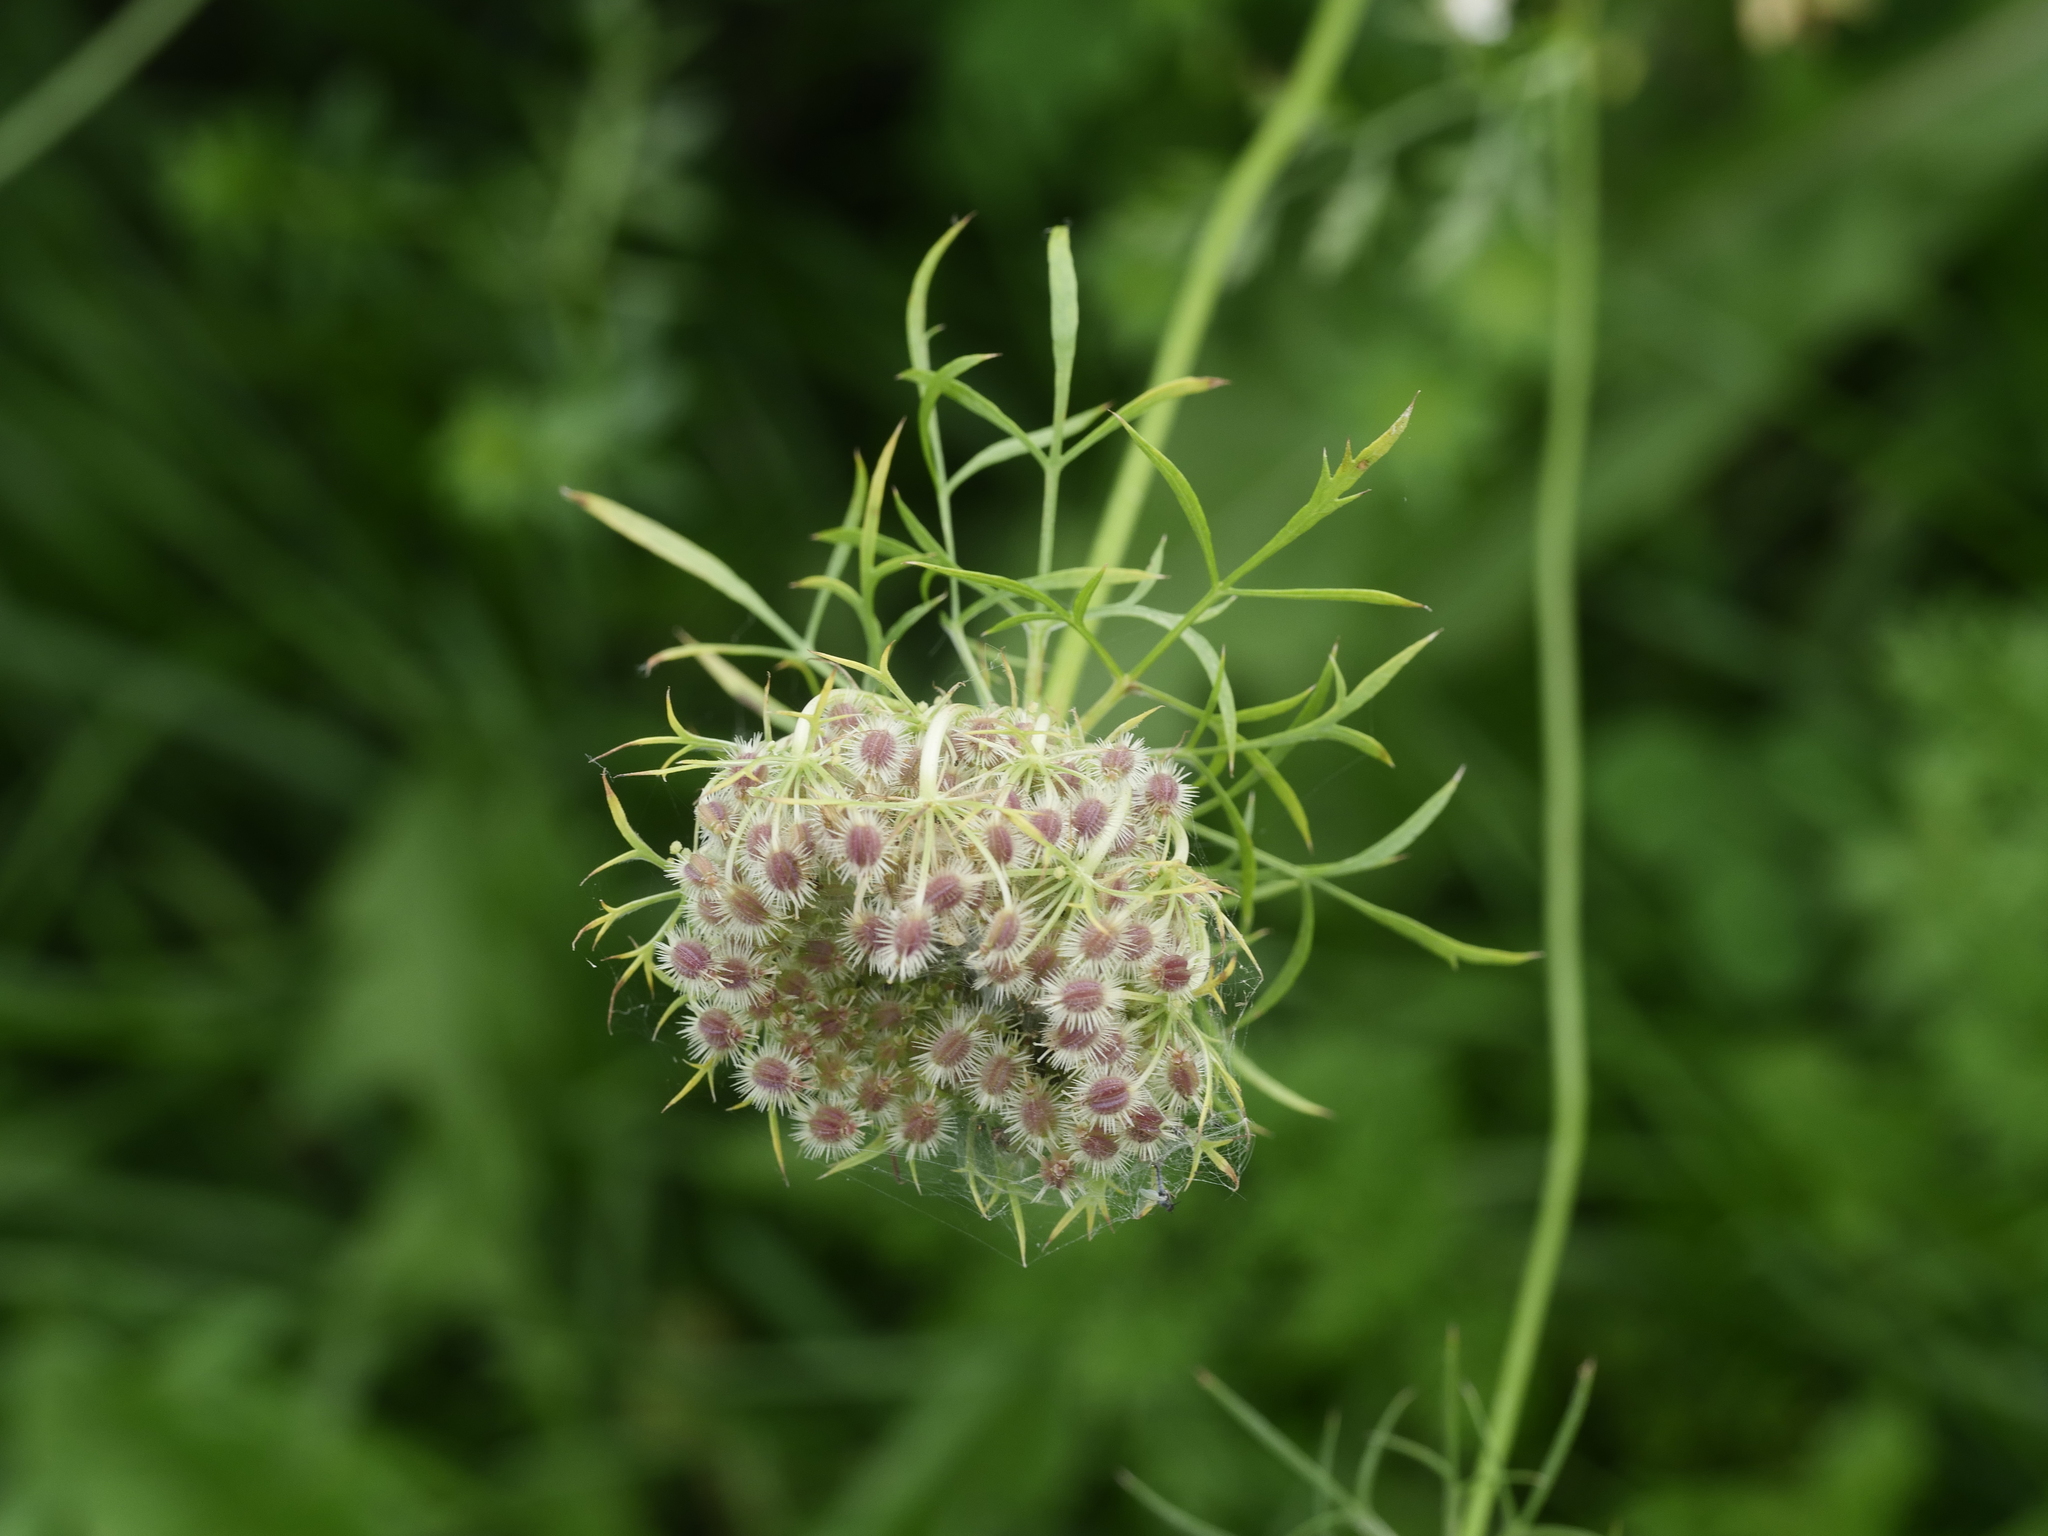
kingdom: Plantae
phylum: Tracheophyta
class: Magnoliopsida
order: Apiales
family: Apiaceae
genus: Daucus
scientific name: Daucus carota
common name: Wild carrot
